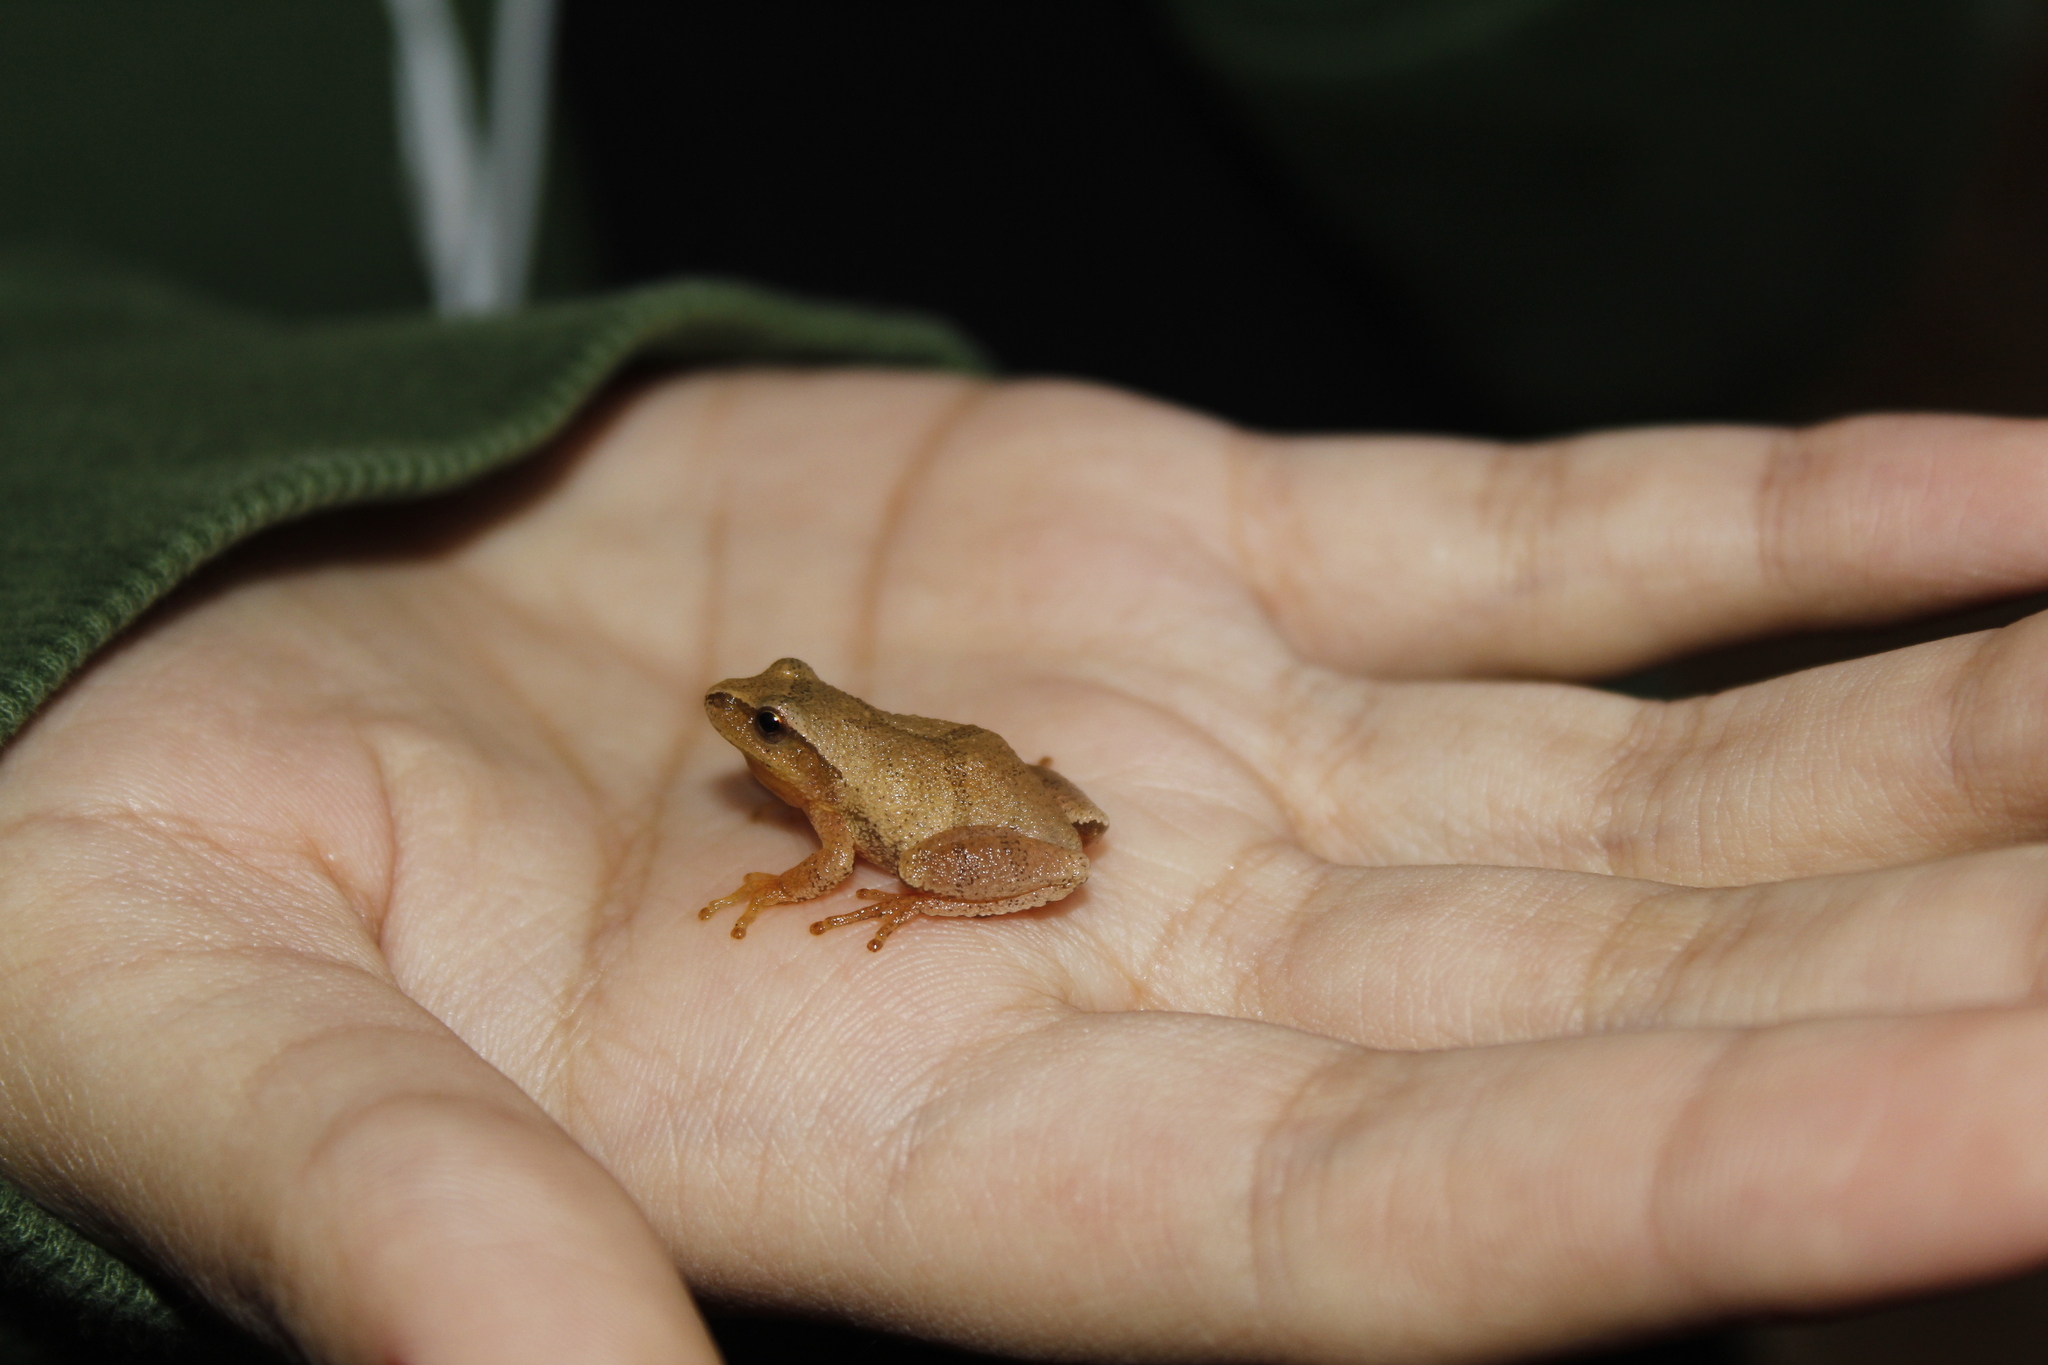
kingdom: Animalia
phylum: Chordata
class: Amphibia
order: Anura
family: Hylidae
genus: Pseudacris
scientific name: Pseudacris crucifer
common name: Spring peeper
